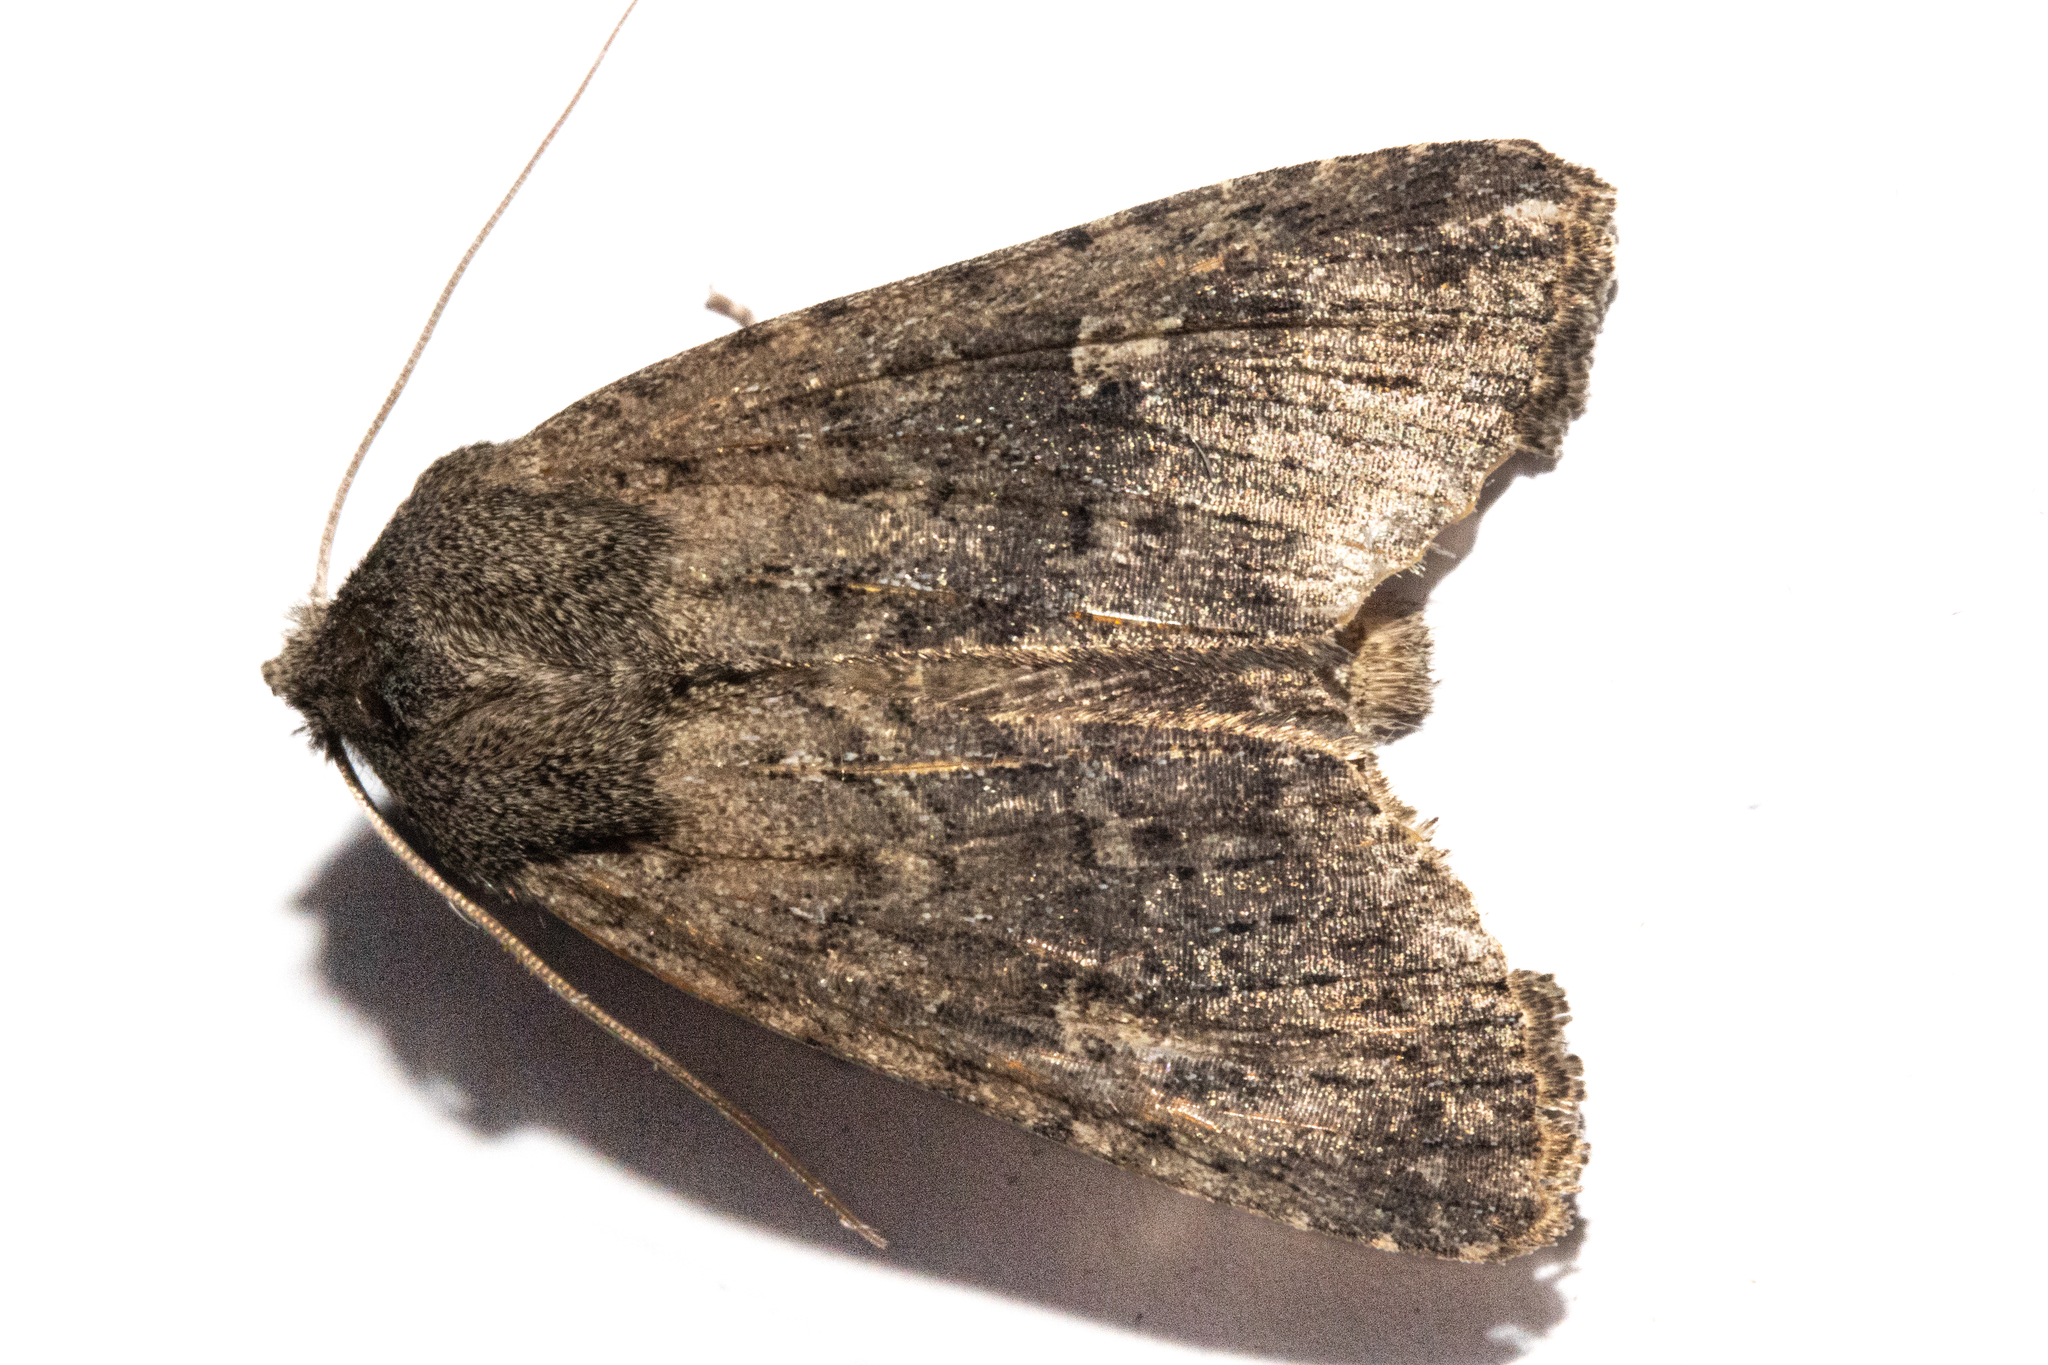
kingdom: Animalia
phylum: Arthropoda
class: Insecta
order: Lepidoptera
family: Noctuidae
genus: Physetica
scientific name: Physetica
